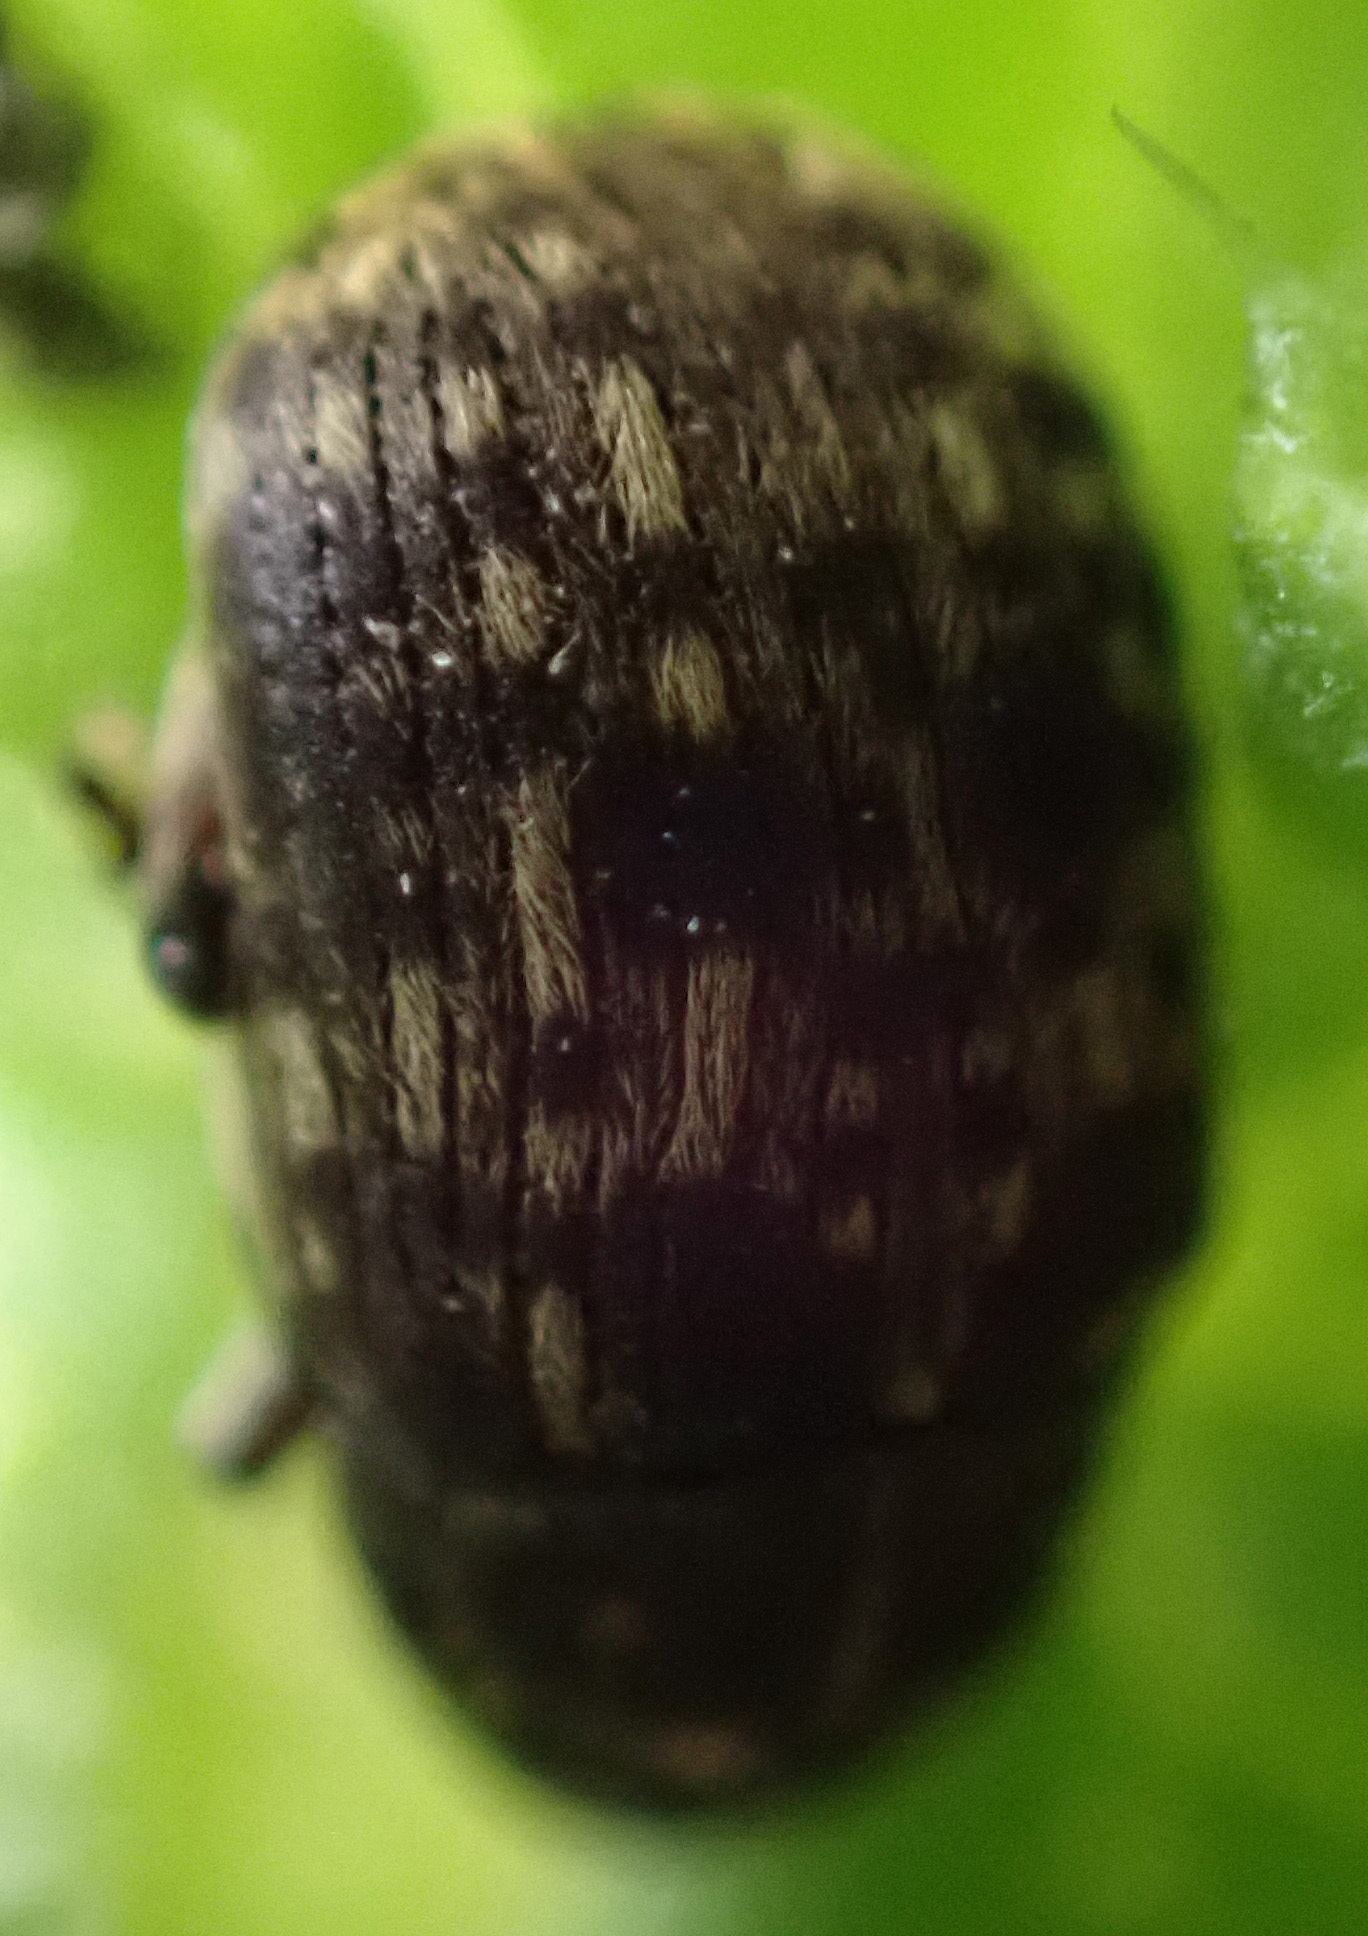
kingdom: Animalia
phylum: Arthropoda
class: Insecta
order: Coleoptera
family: Anthribidae
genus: Anthribus
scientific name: Anthribus nebulosus
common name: Fungus weevil
